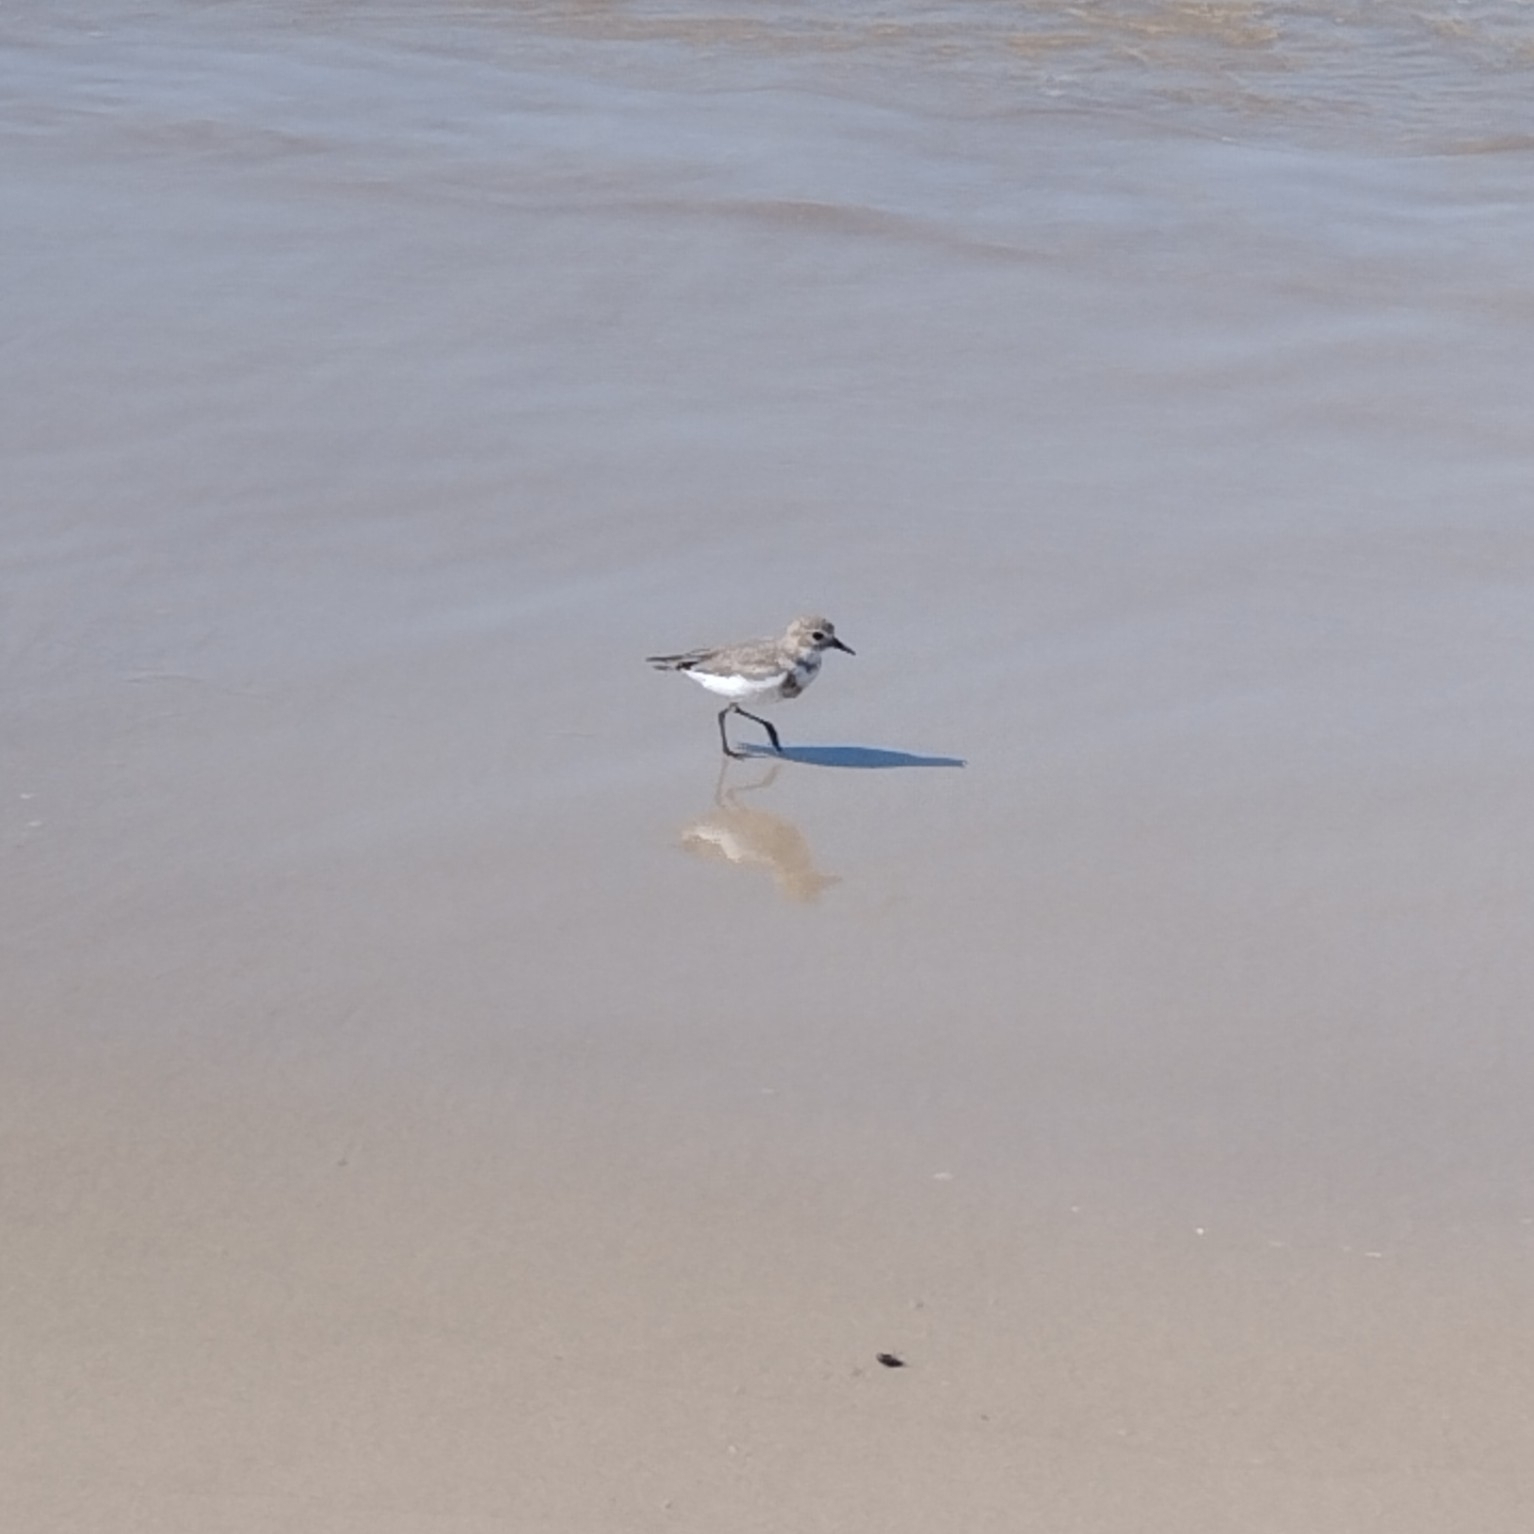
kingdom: Animalia
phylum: Chordata
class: Aves
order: Charadriiformes
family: Charadriidae
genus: Anarhynchus
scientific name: Anarhynchus
